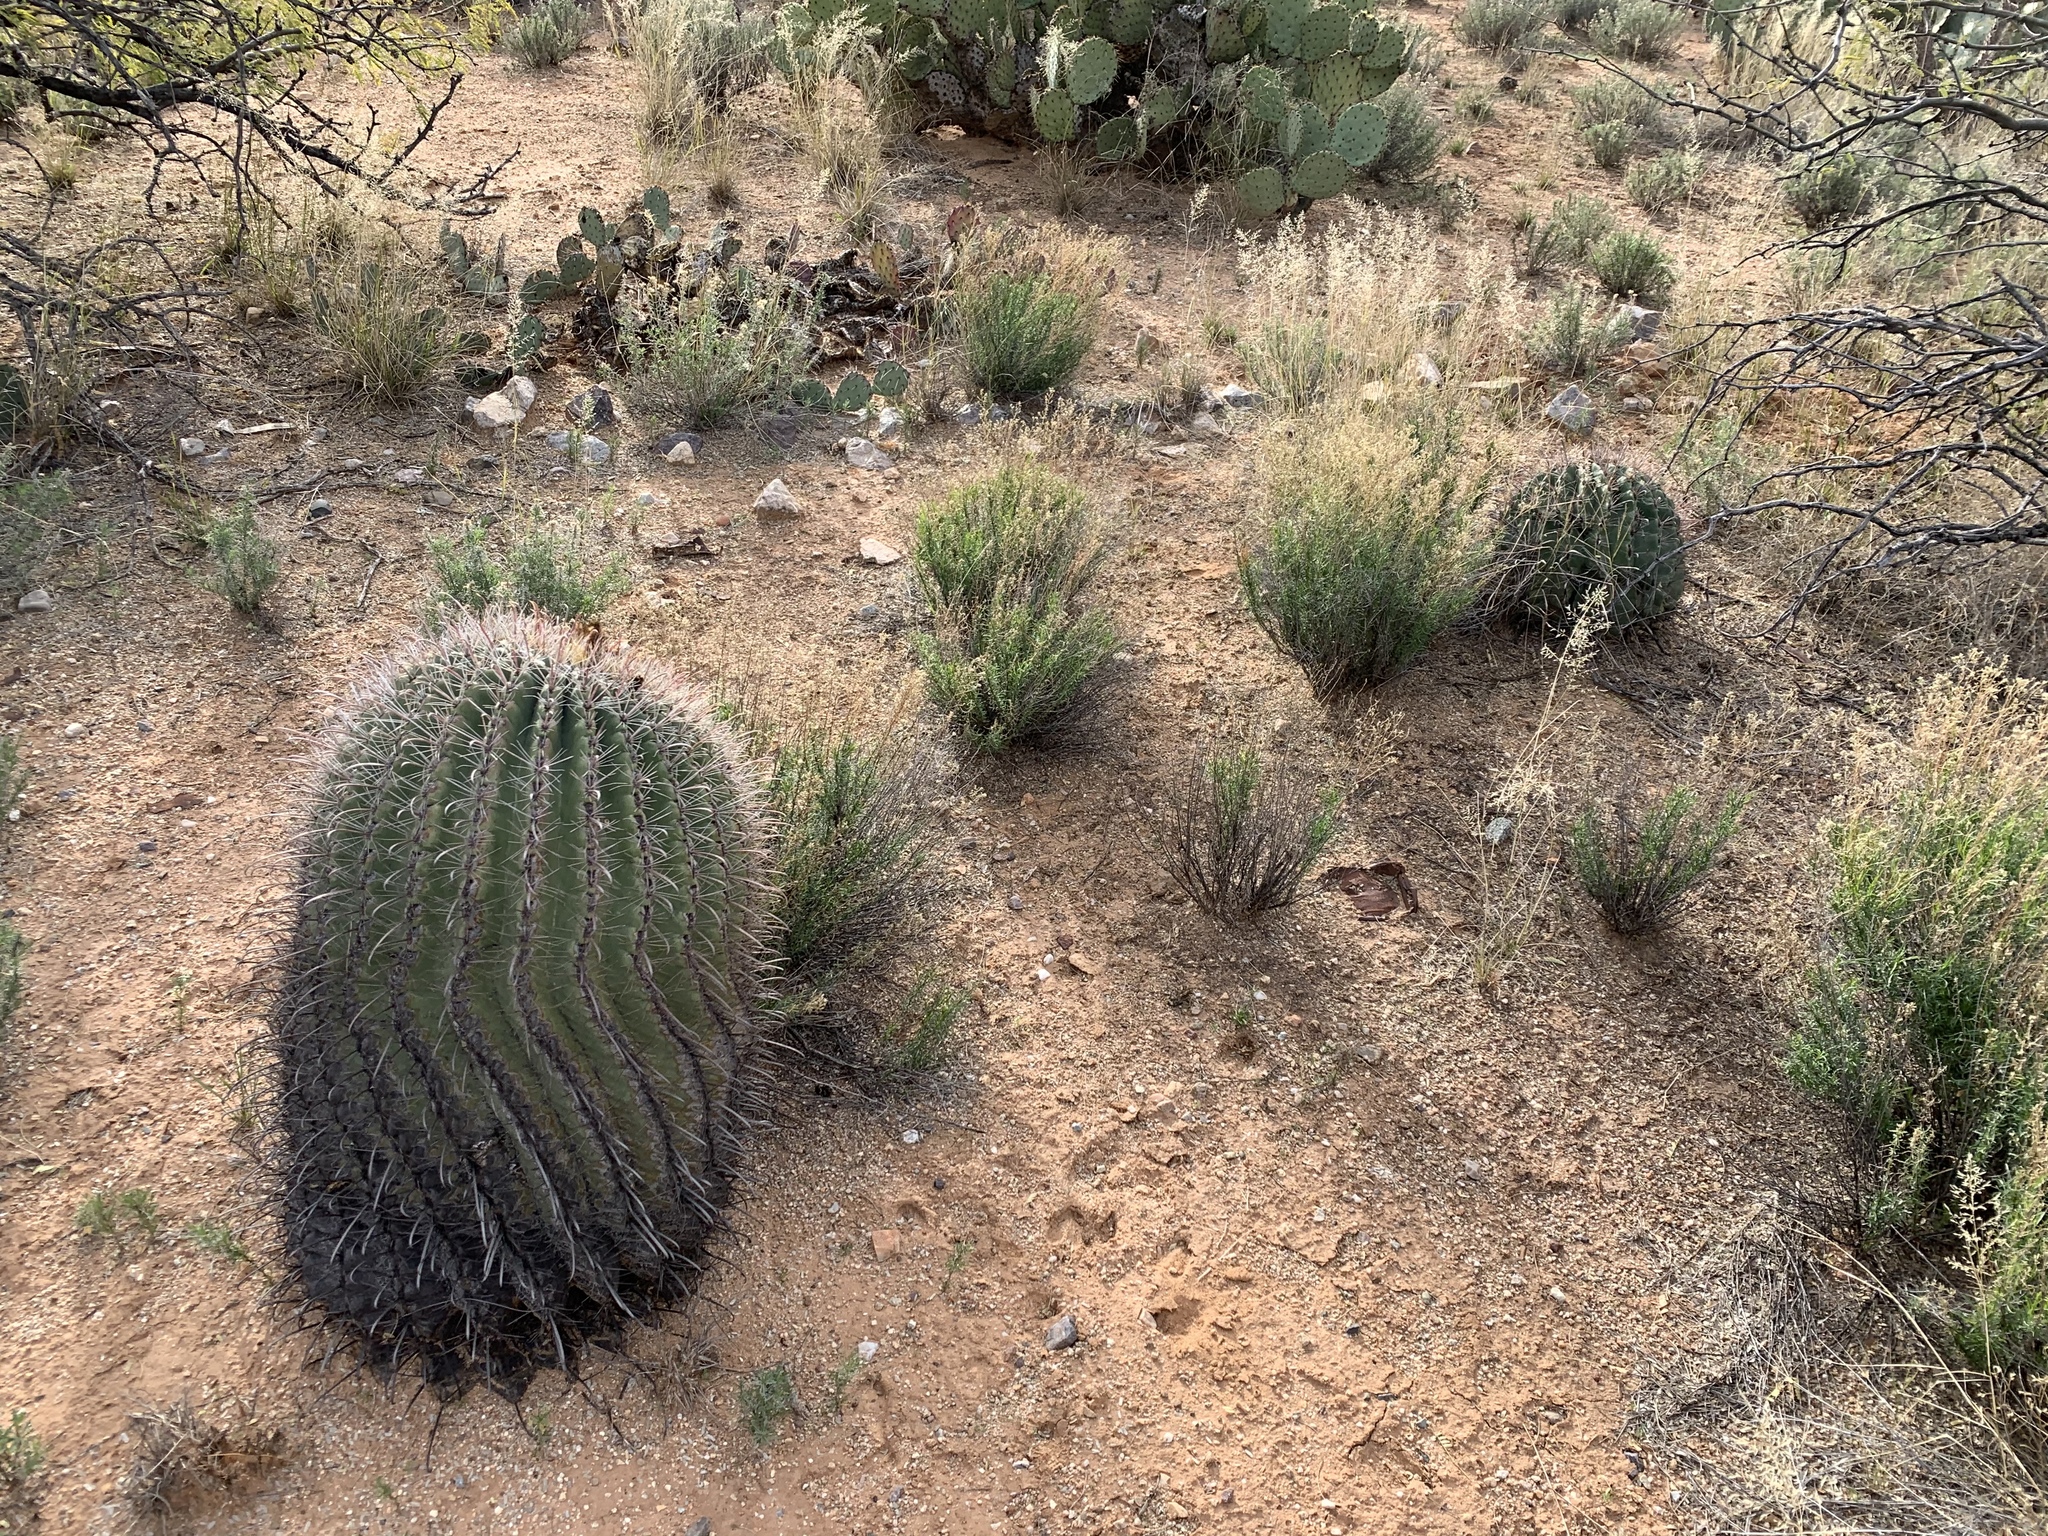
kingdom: Plantae
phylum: Tracheophyta
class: Magnoliopsida
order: Caryophyllales
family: Cactaceae
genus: Ferocactus
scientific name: Ferocactus wislizeni
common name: Candy barrel cactus
